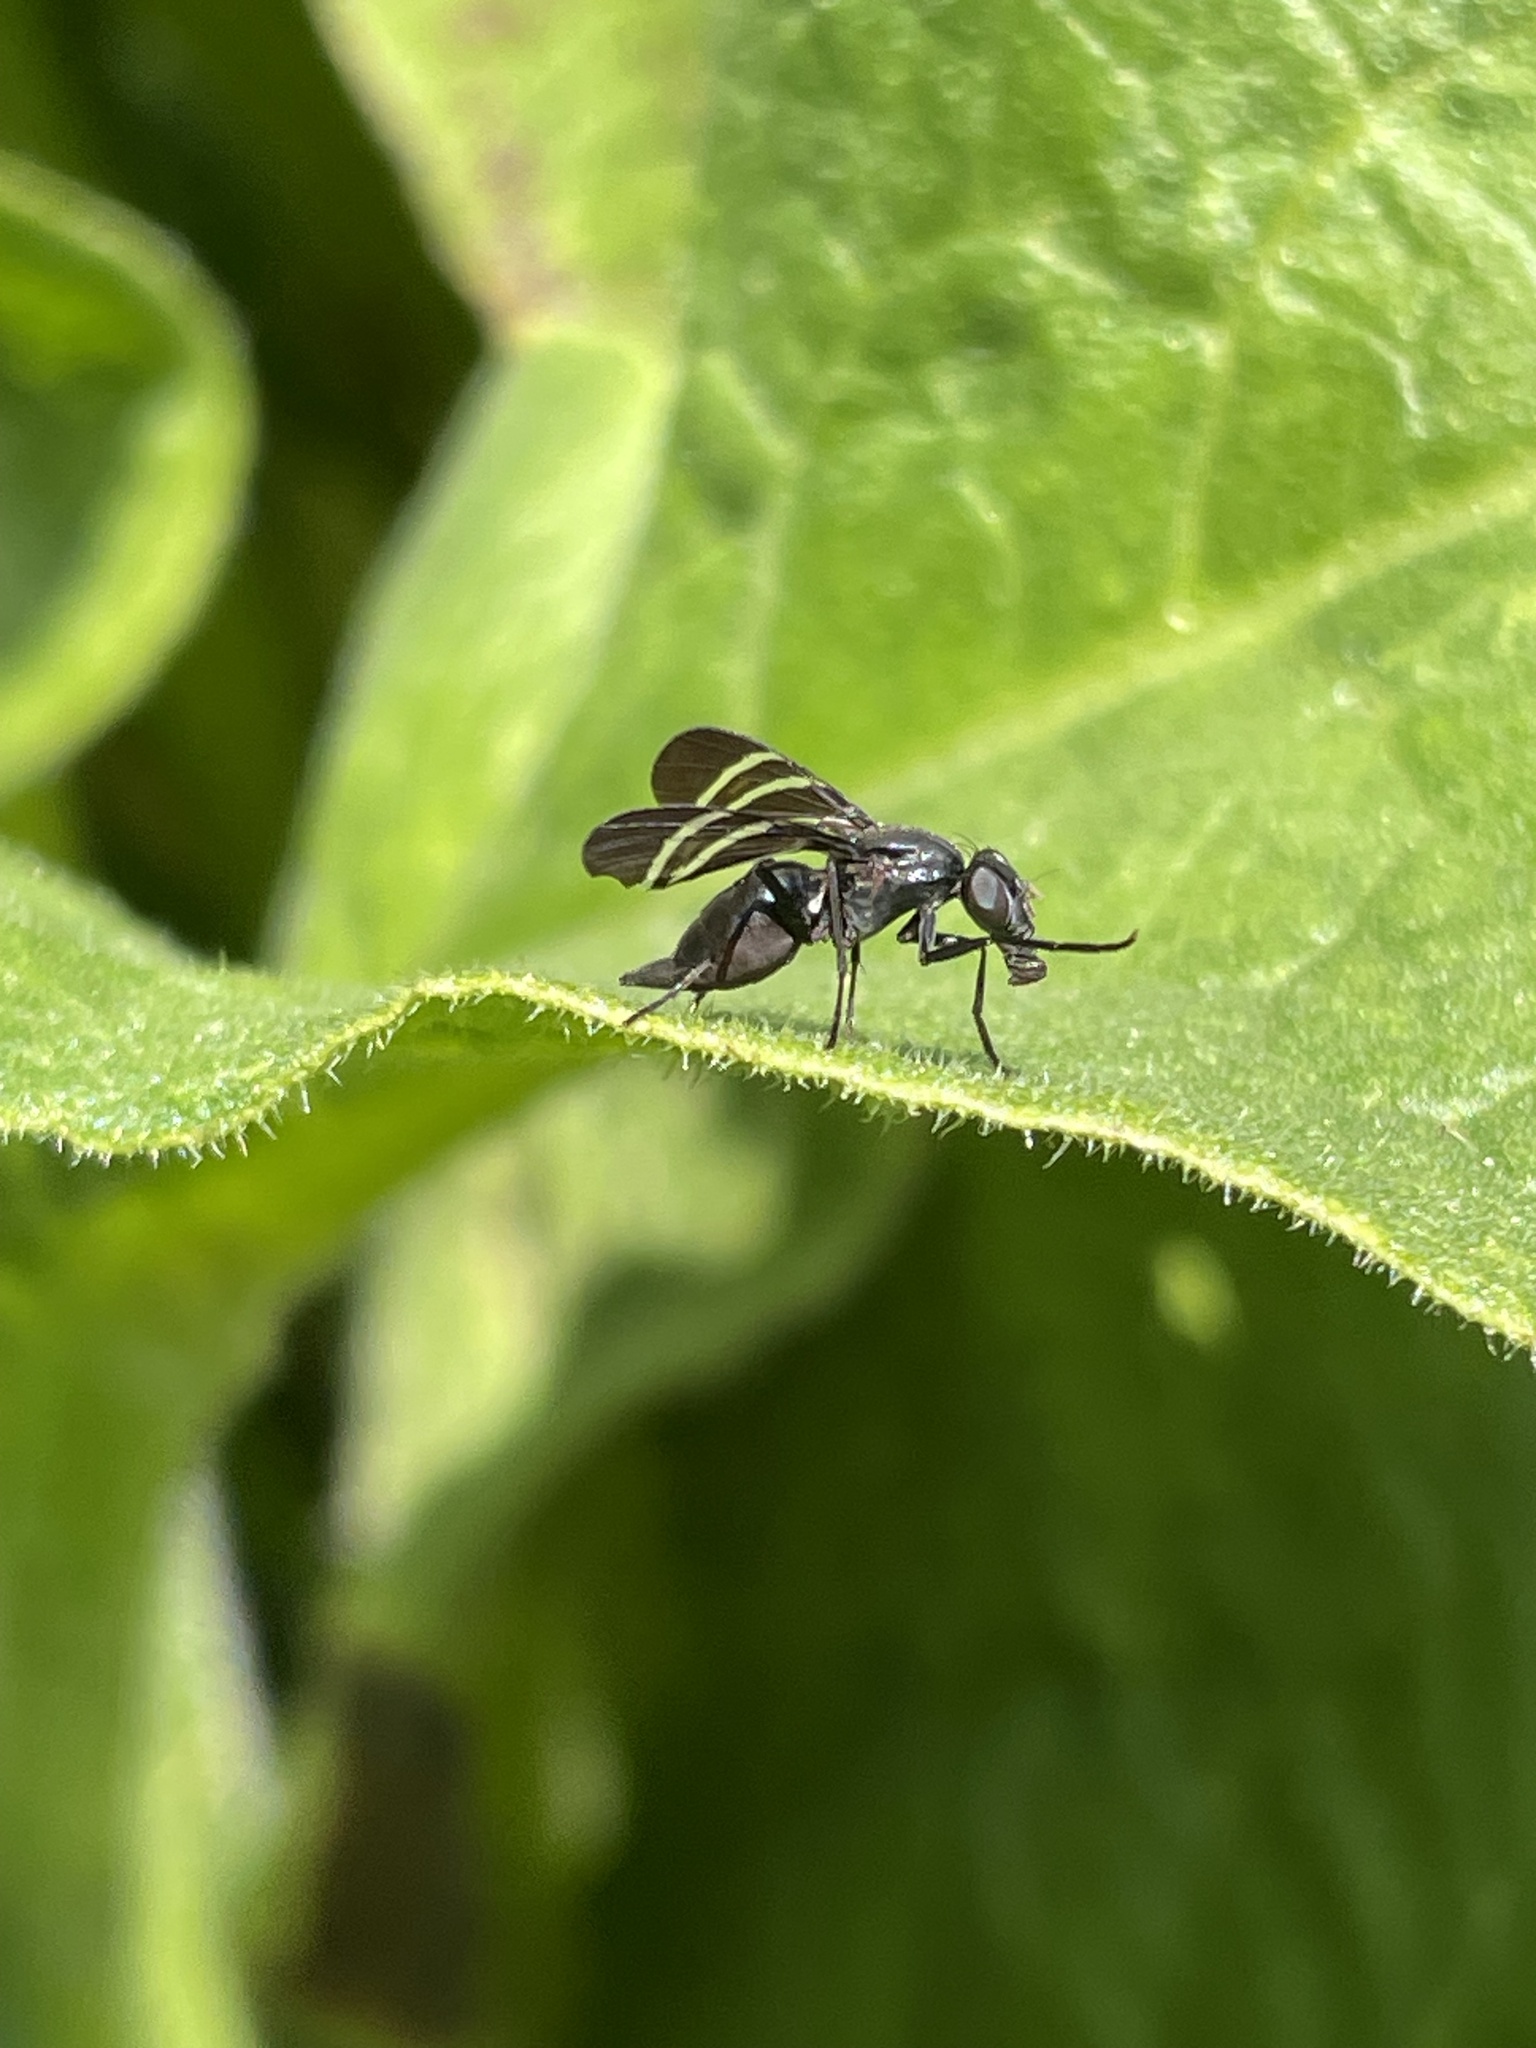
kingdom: Animalia
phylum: Arthropoda
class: Insecta
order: Diptera
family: Ulidiidae
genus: Tritoxa
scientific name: Tritoxa flexa
